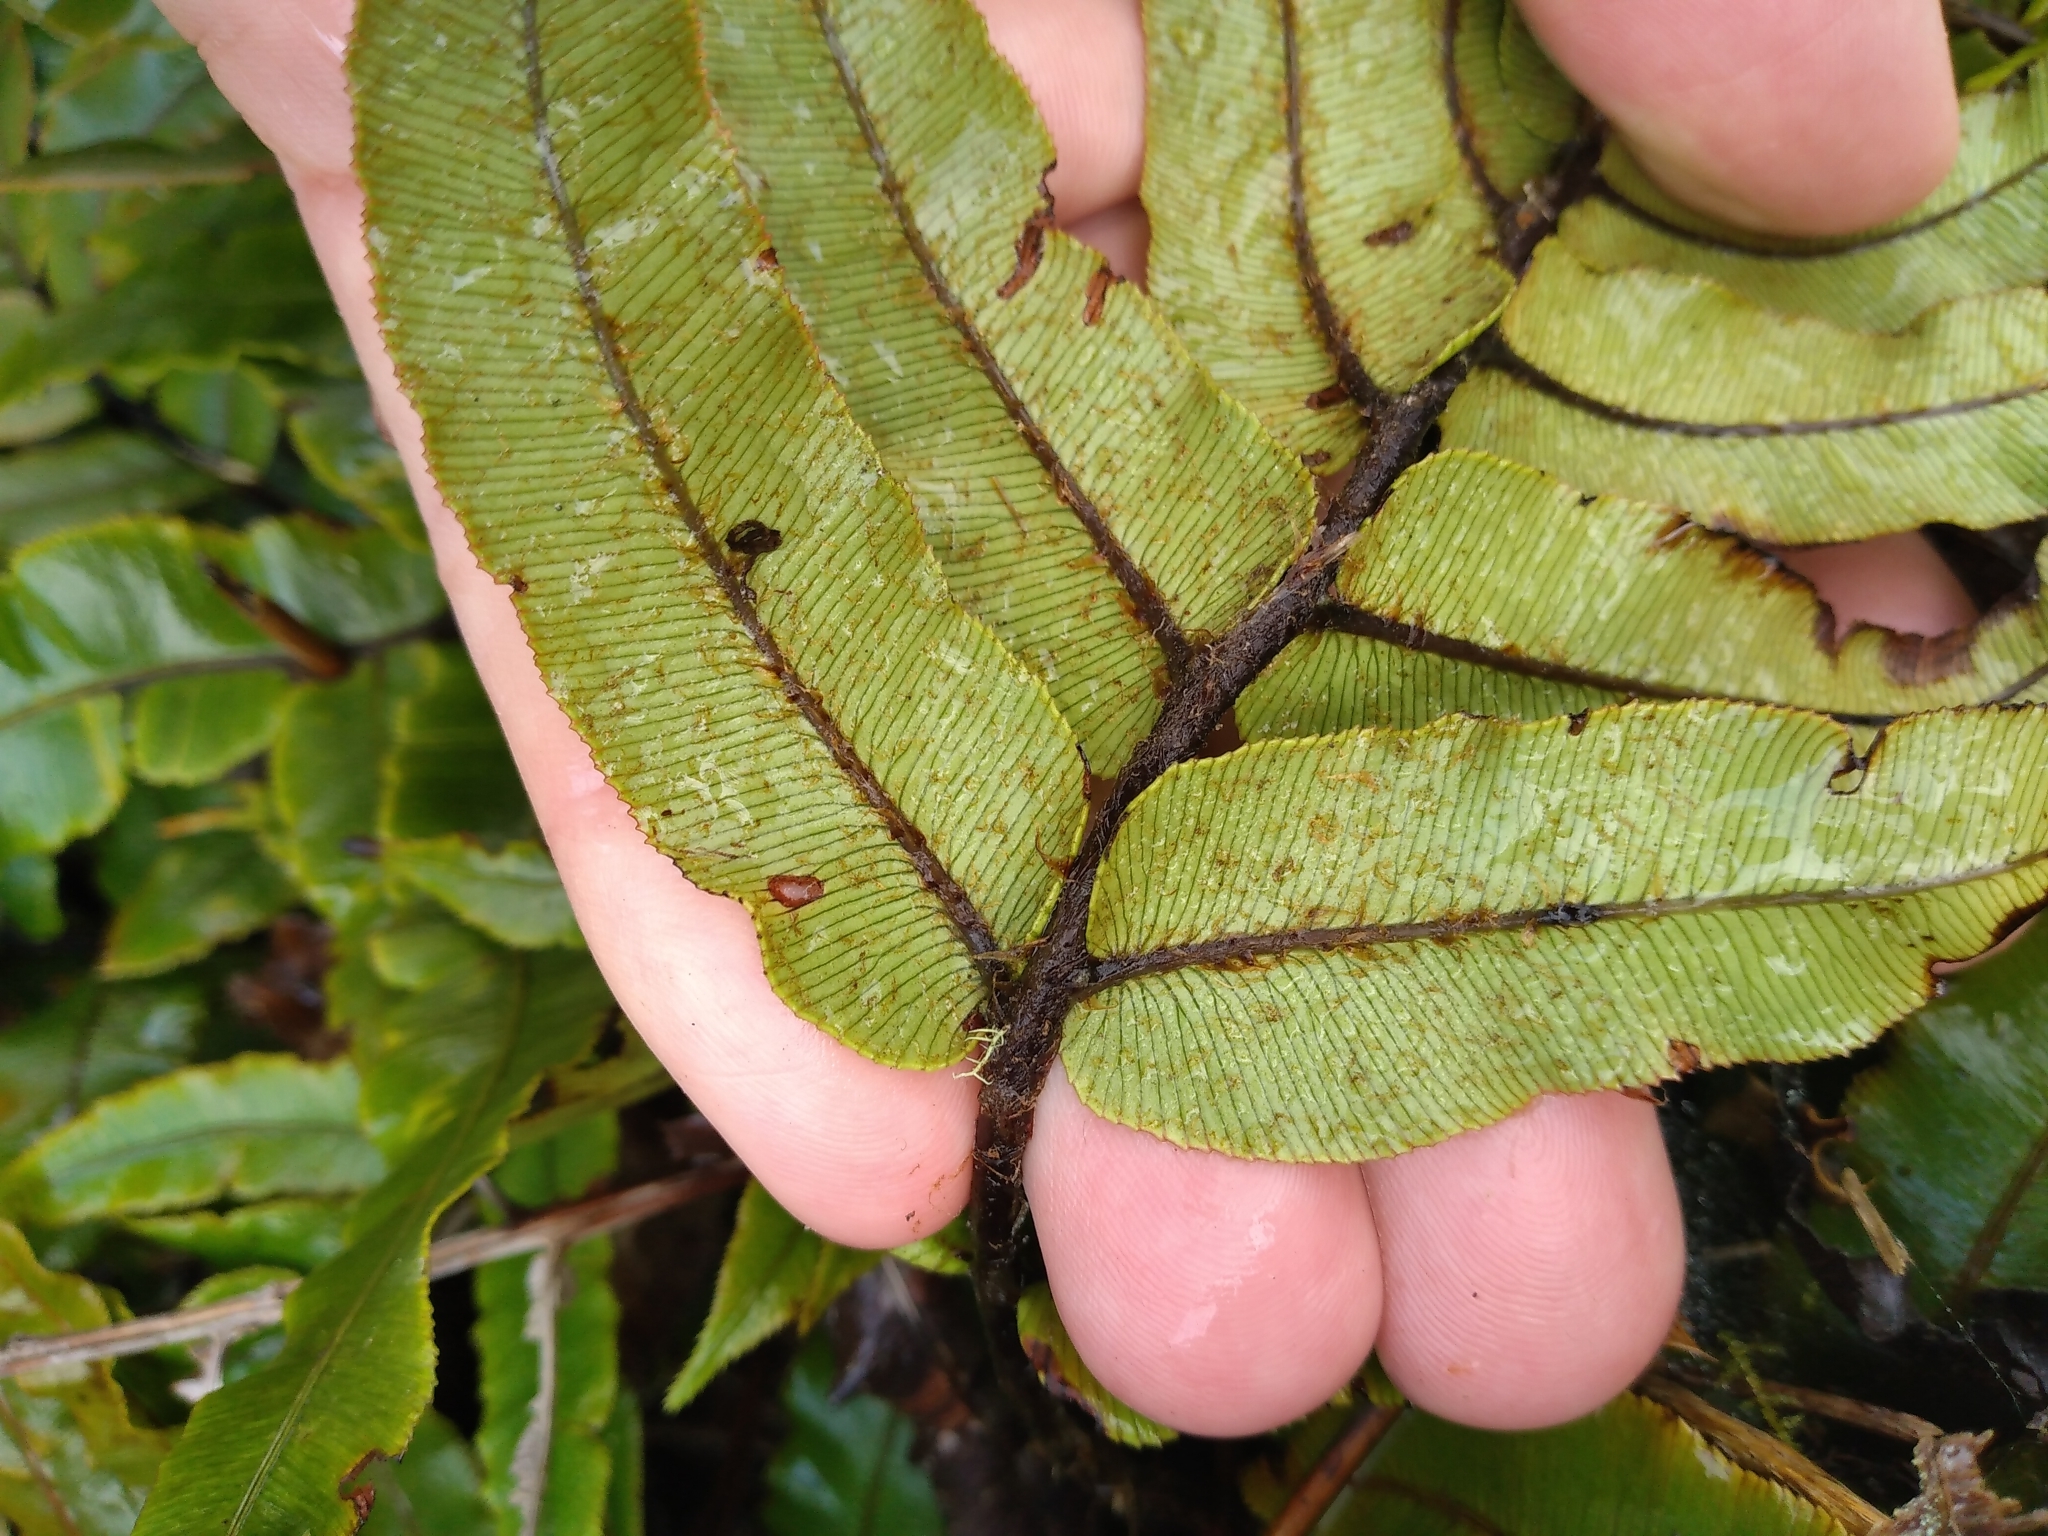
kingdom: Plantae
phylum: Tracheophyta
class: Polypodiopsida
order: Polypodiales
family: Blechnaceae
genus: Parablechnum
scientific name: Parablechnum procerum
